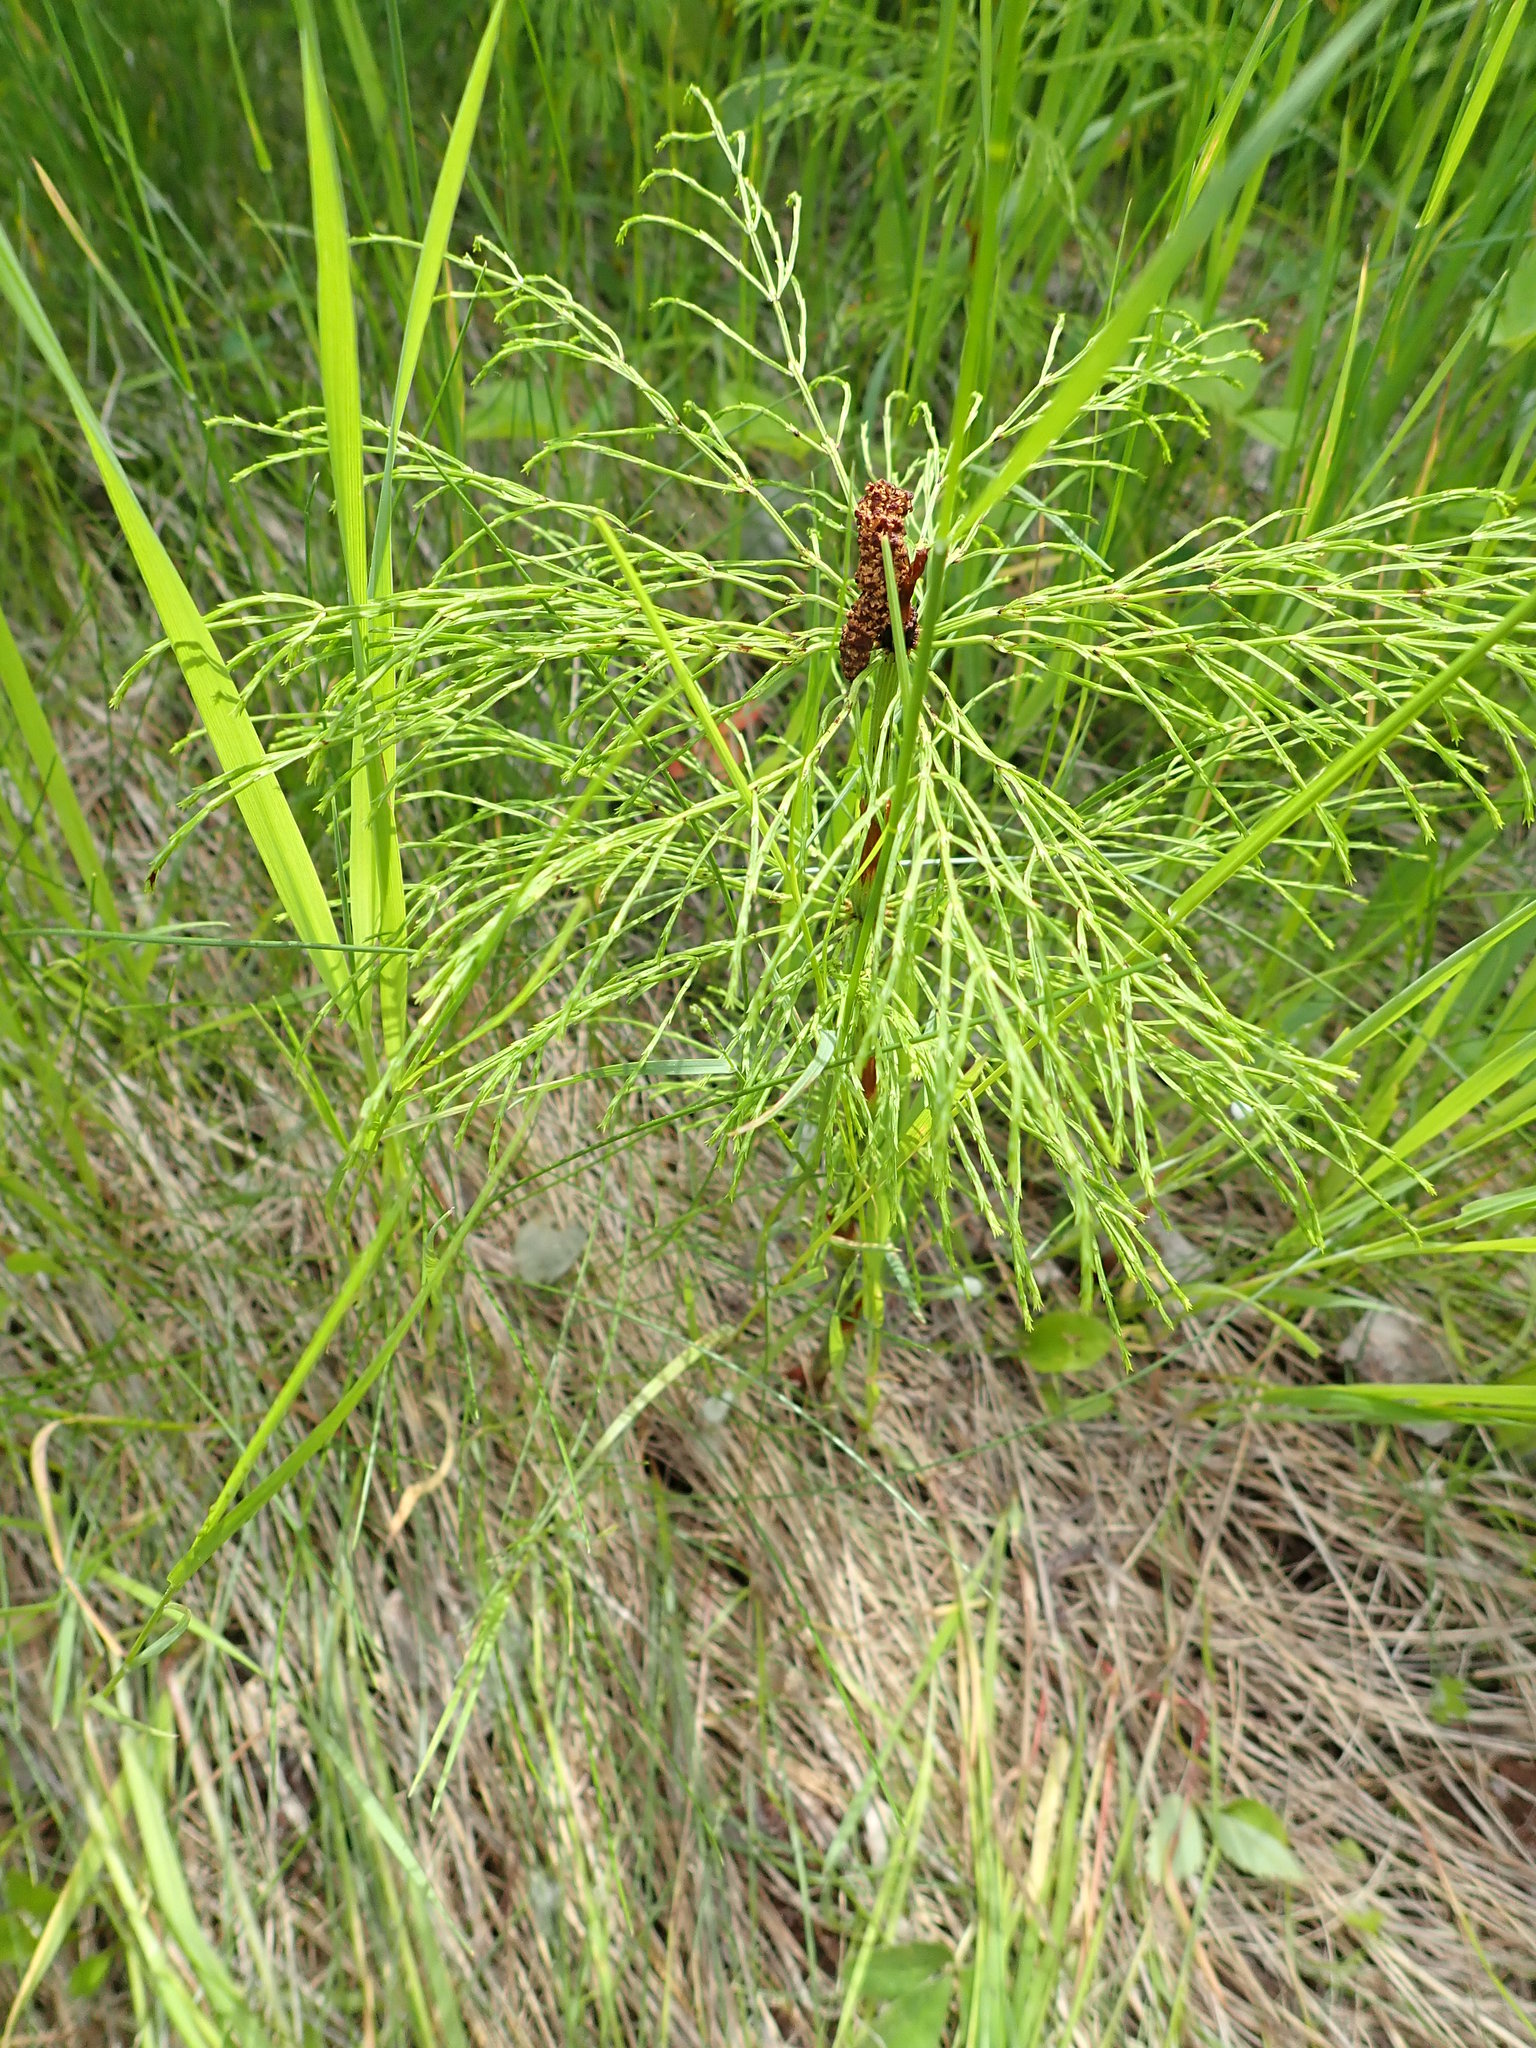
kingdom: Plantae
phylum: Tracheophyta
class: Polypodiopsida
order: Equisetales
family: Equisetaceae
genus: Equisetum
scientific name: Equisetum sylvaticum
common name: Wood horsetail
